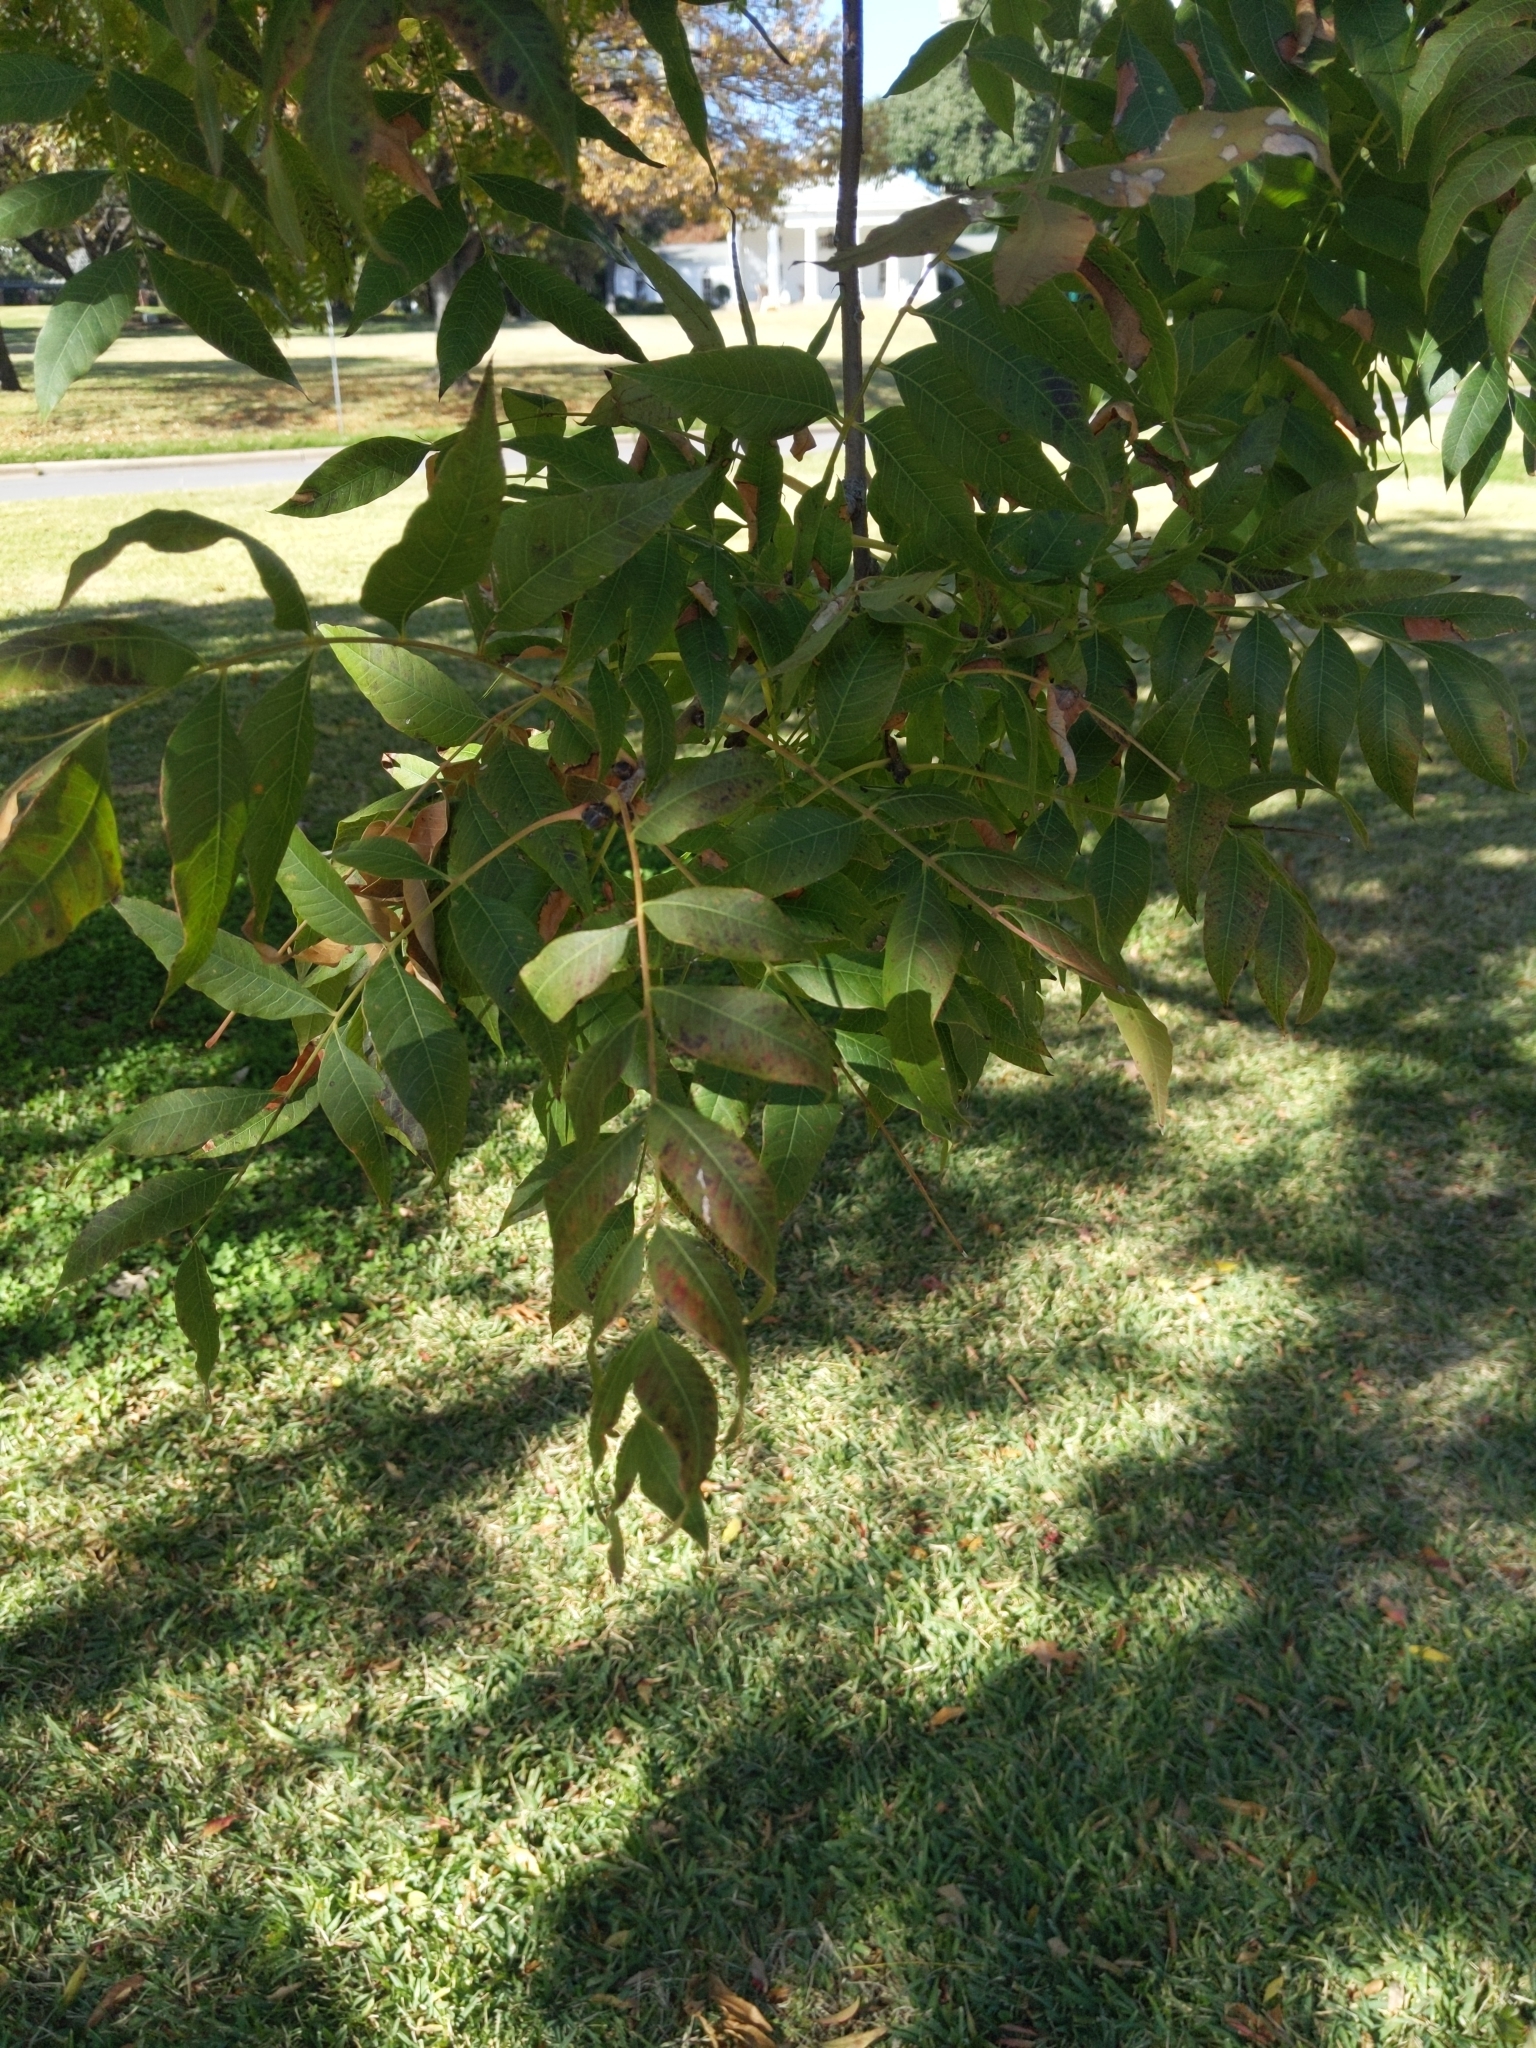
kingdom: Plantae
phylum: Tracheophyta
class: Magnoliopsida
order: Sapindales
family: Anacardiaceae
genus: Pistacia
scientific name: Pistacia chinensis
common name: Chinese pistache
